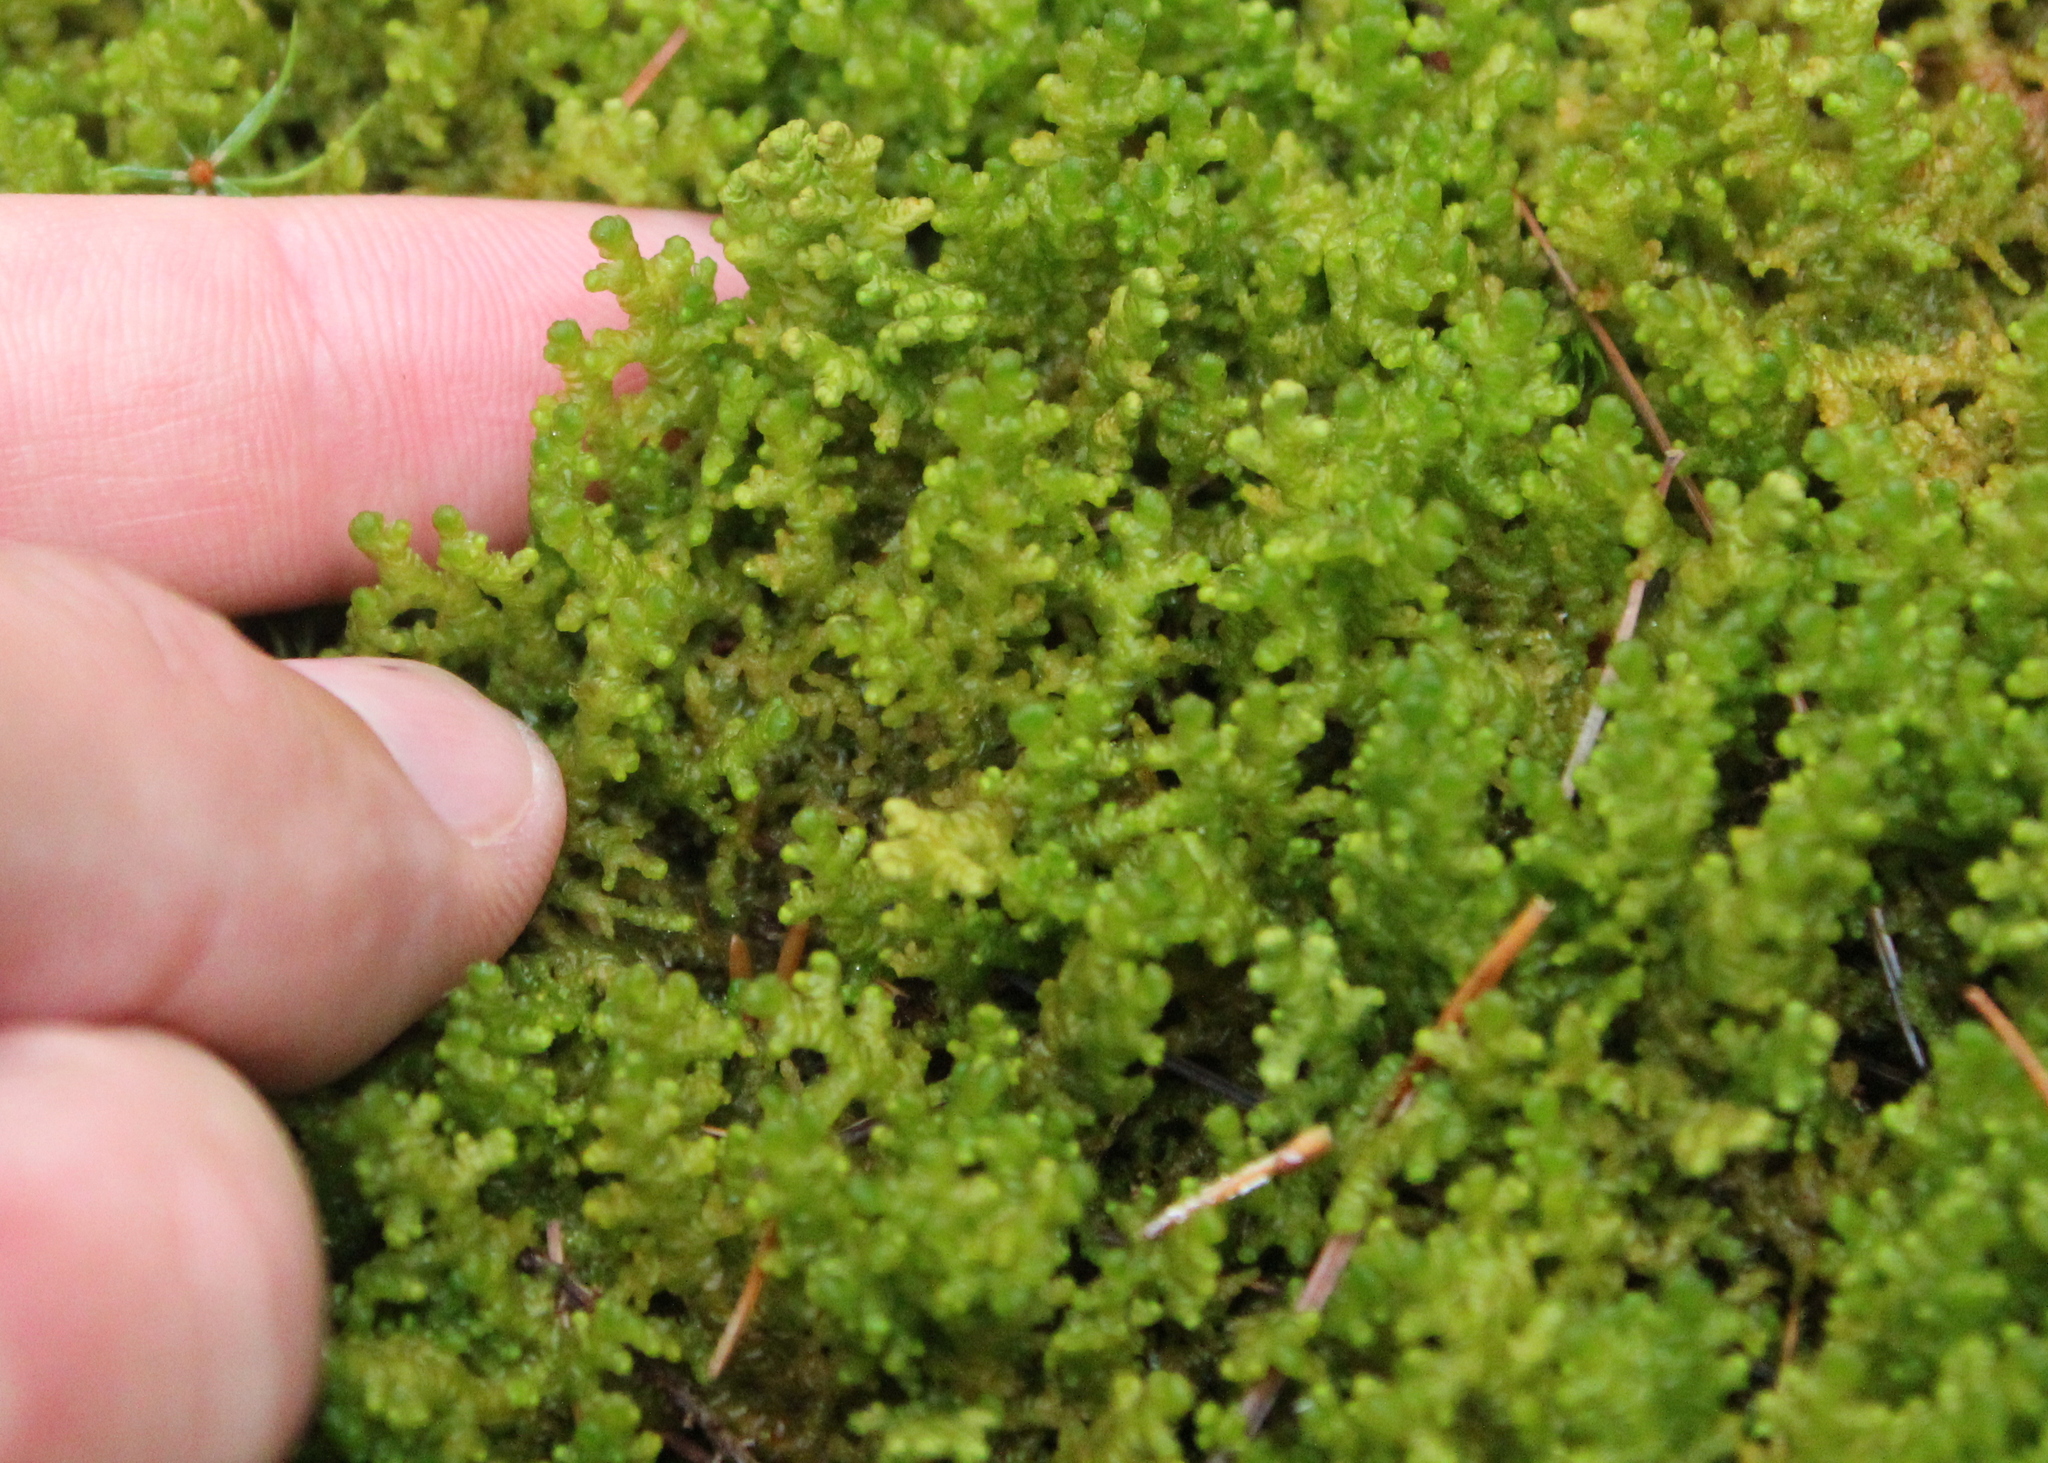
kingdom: Plantae
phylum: Marchantiophyta
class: Jungermanniopsida
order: Ptilidiales
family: Ptilidiaceae
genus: Ptilidium
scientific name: Ptilidium ciliare
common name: Ciliate fringewort
